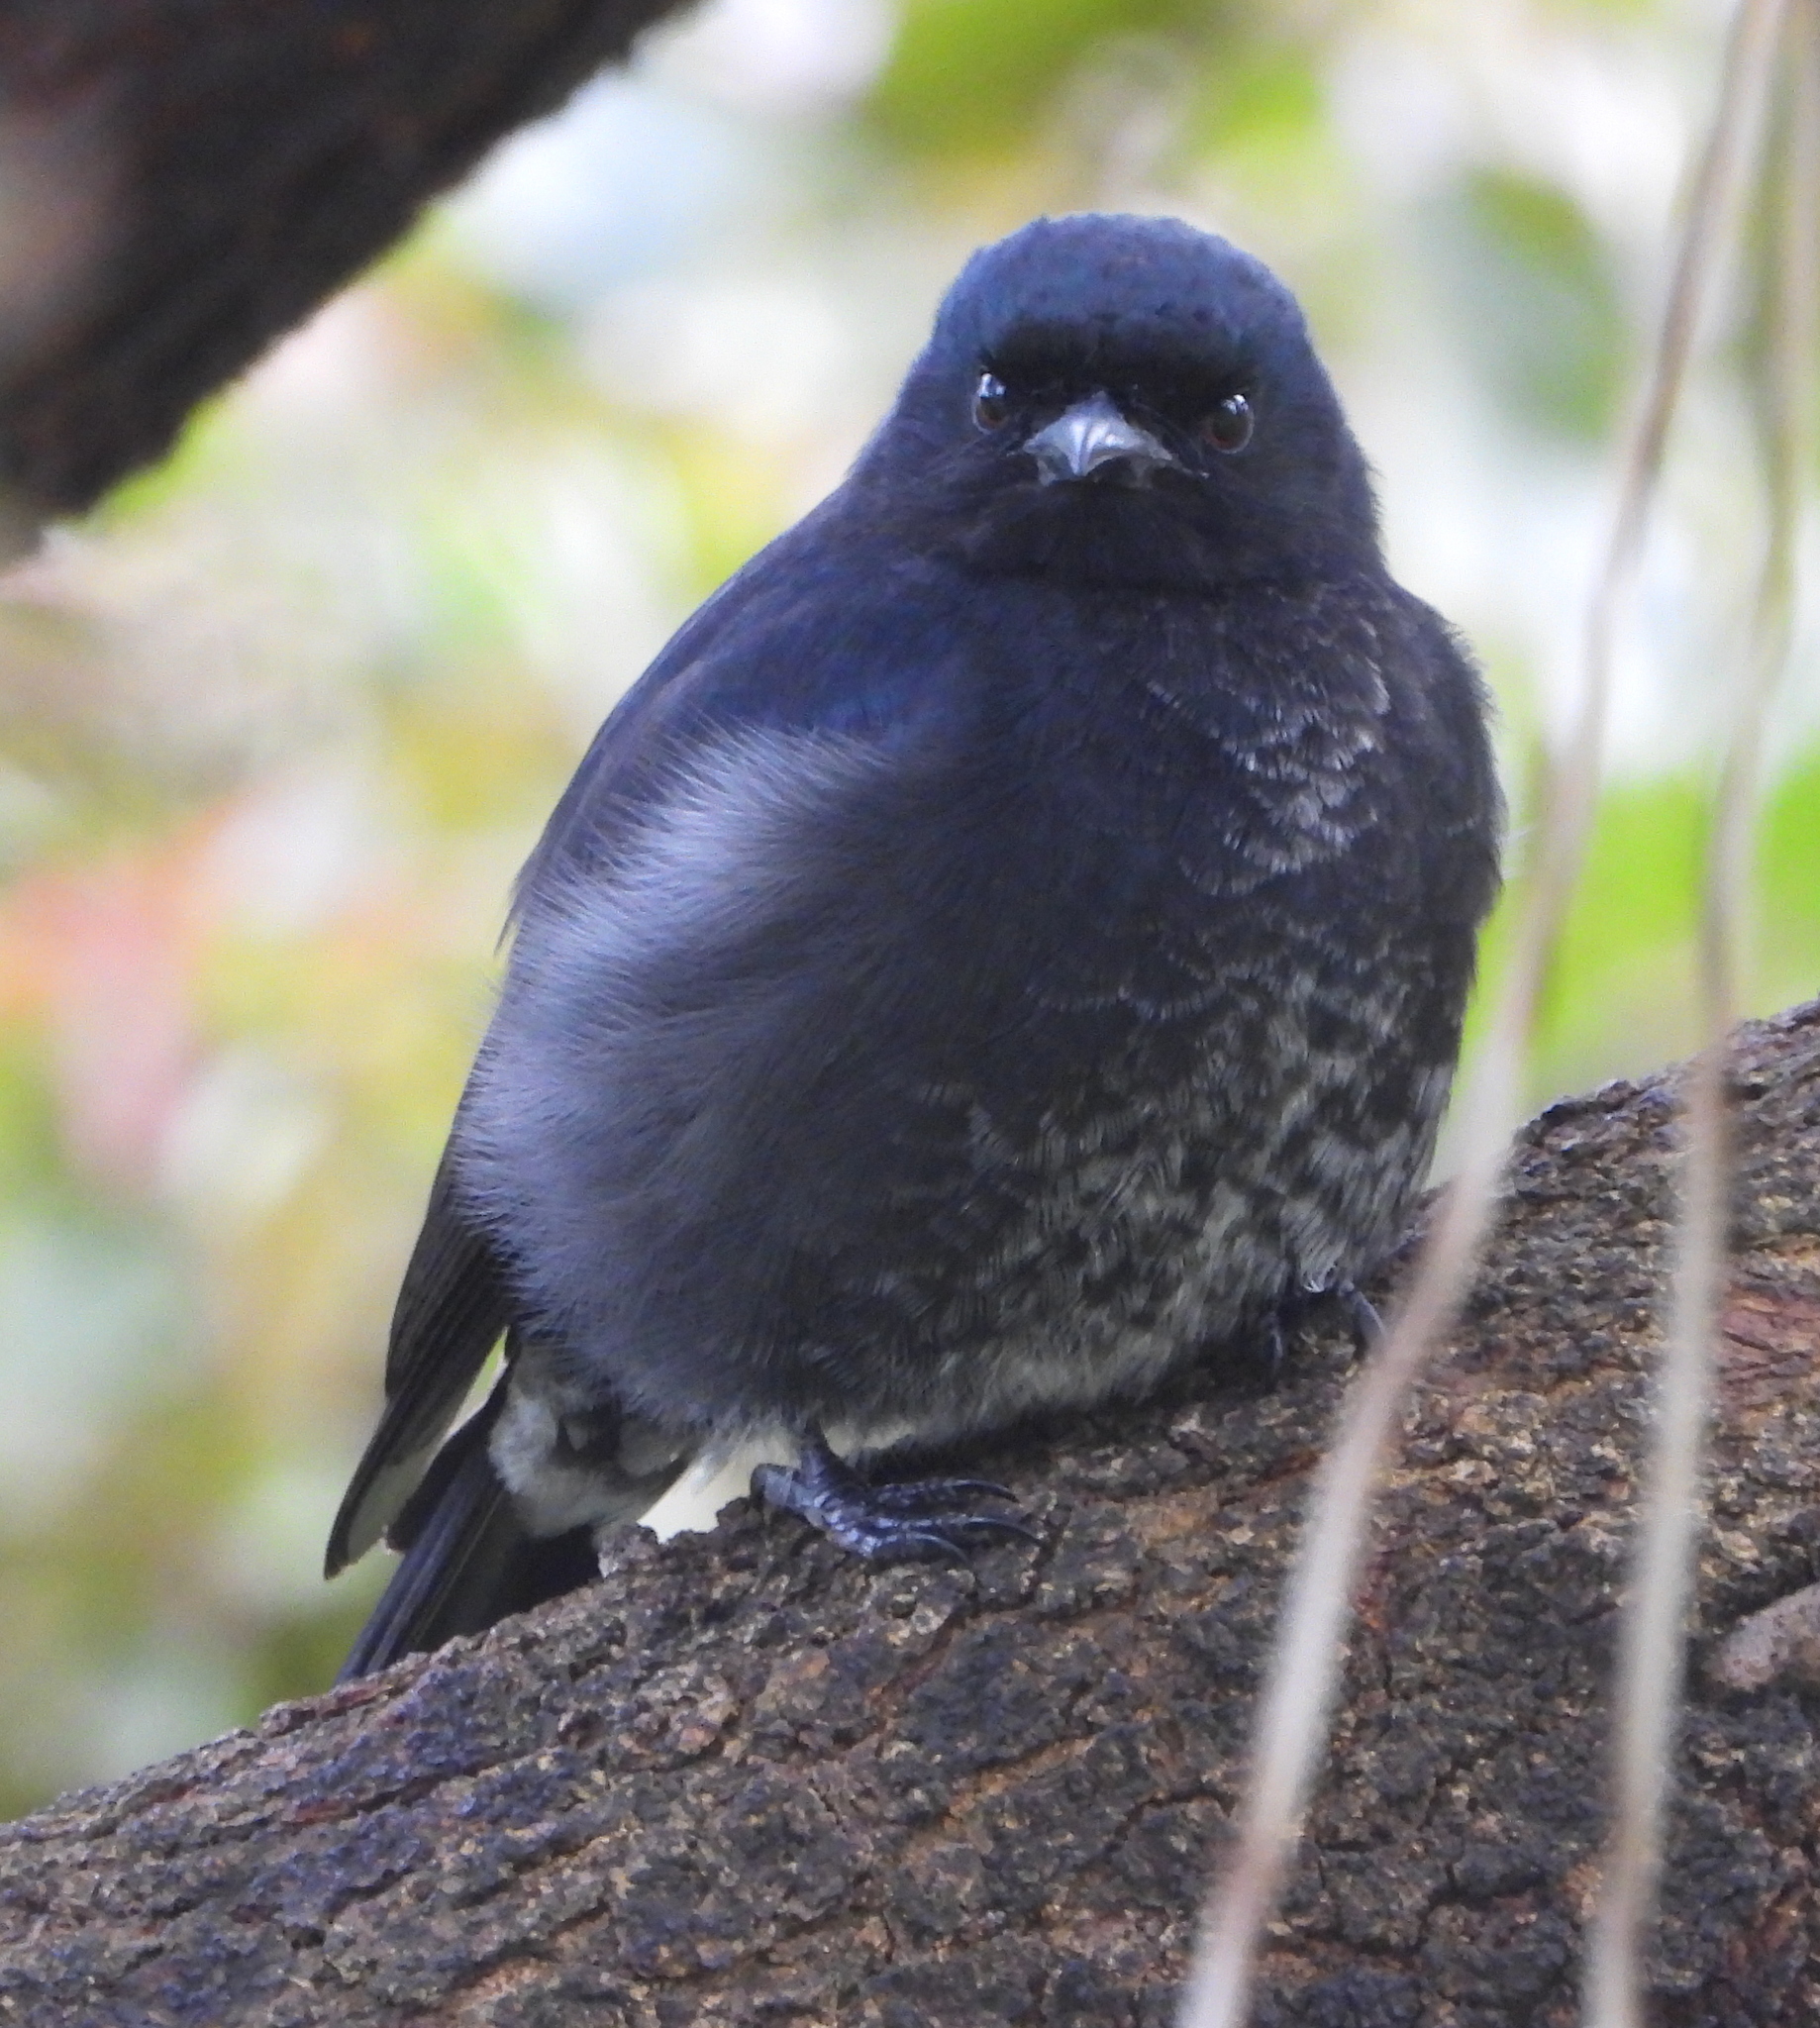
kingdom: Animalia
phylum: Chordata
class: Aves
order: Passeriformes
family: Dicruridae
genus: Dicrurus
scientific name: Dicrurus adsimilis
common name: Fork-tailed drongo
